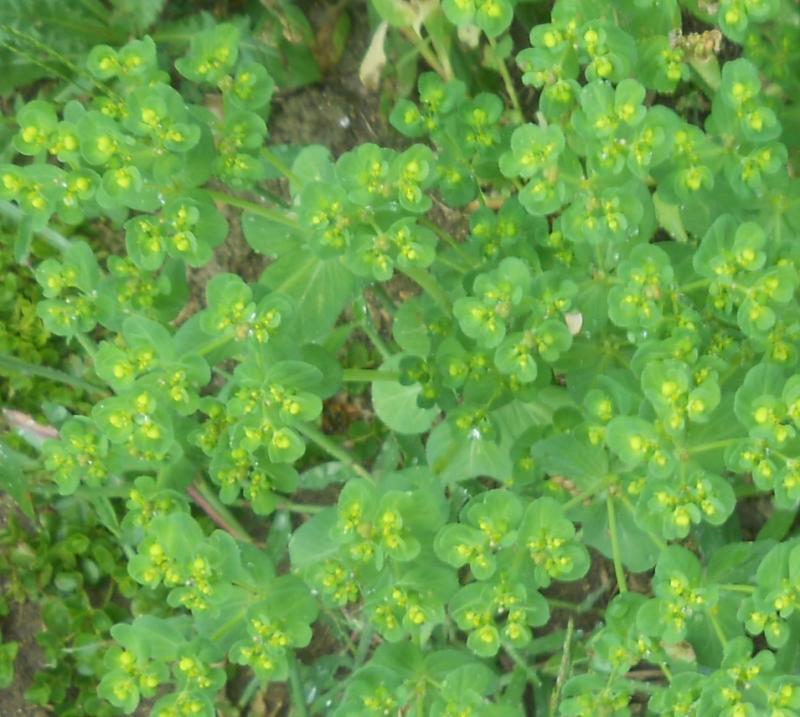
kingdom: Plantae
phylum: Tracheophyta
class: Magnoliopsida
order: Malpighiales
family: Euphorbiaceae
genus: Euphorbia
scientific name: Euphorbia helioscopia
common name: Sun spurge
